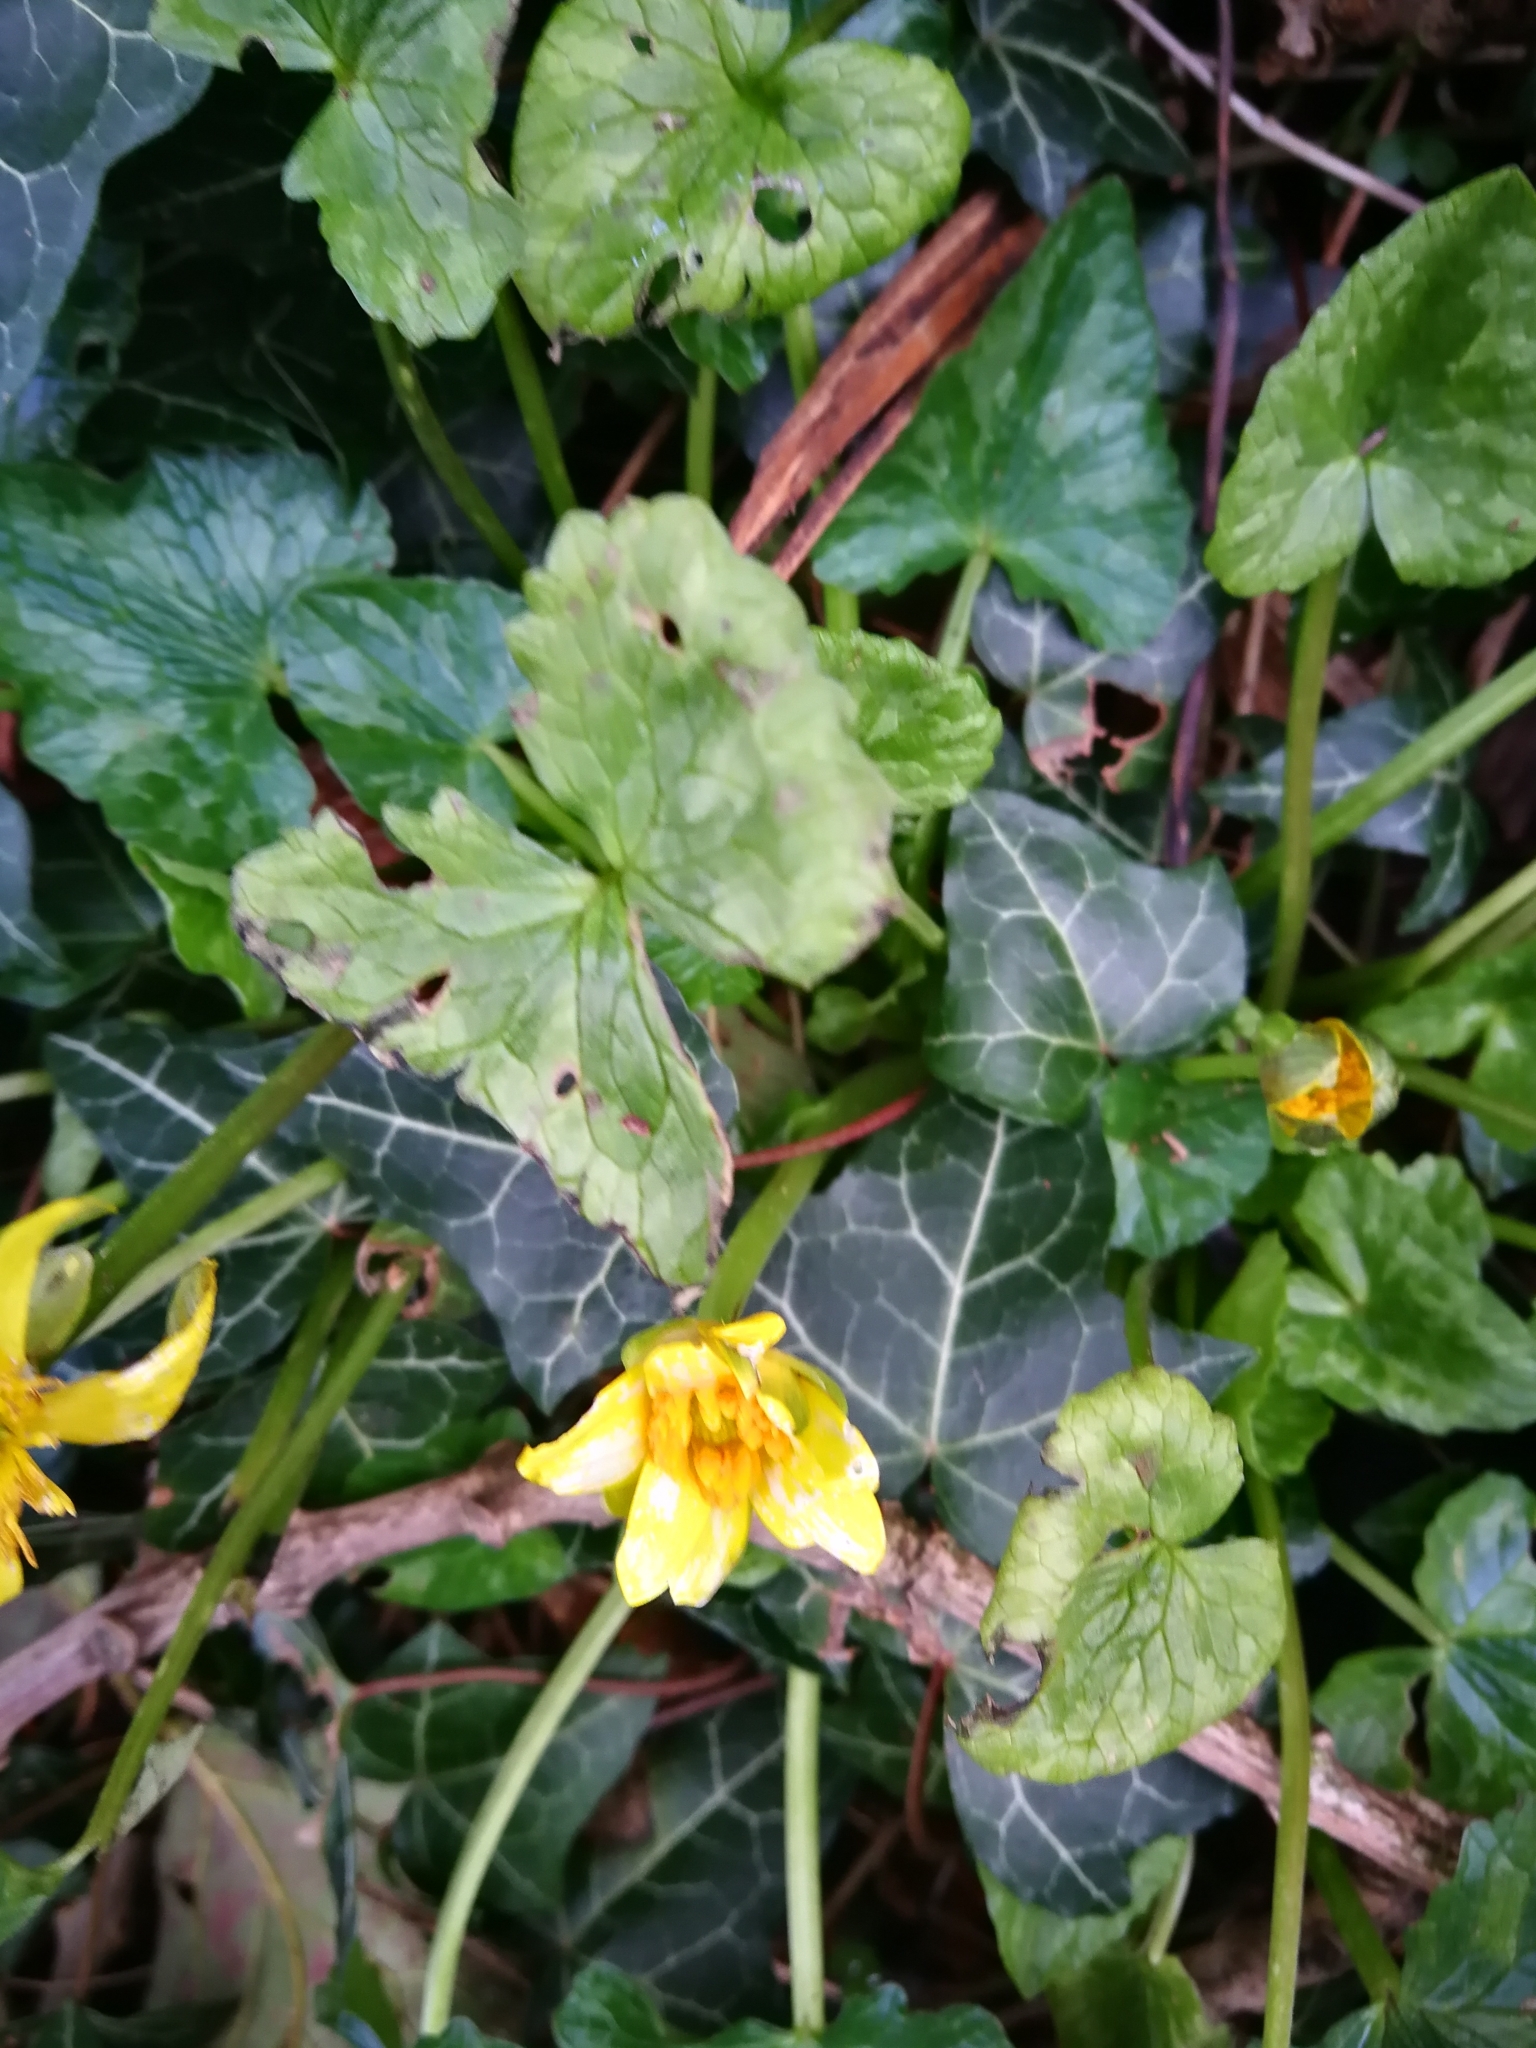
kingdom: Plantae
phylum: Tracheophyta
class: Magnoliopsida
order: Ranunculales
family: Ranunculaceae
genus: Ficaria
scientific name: Ficaria verna
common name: Lesser celandine
